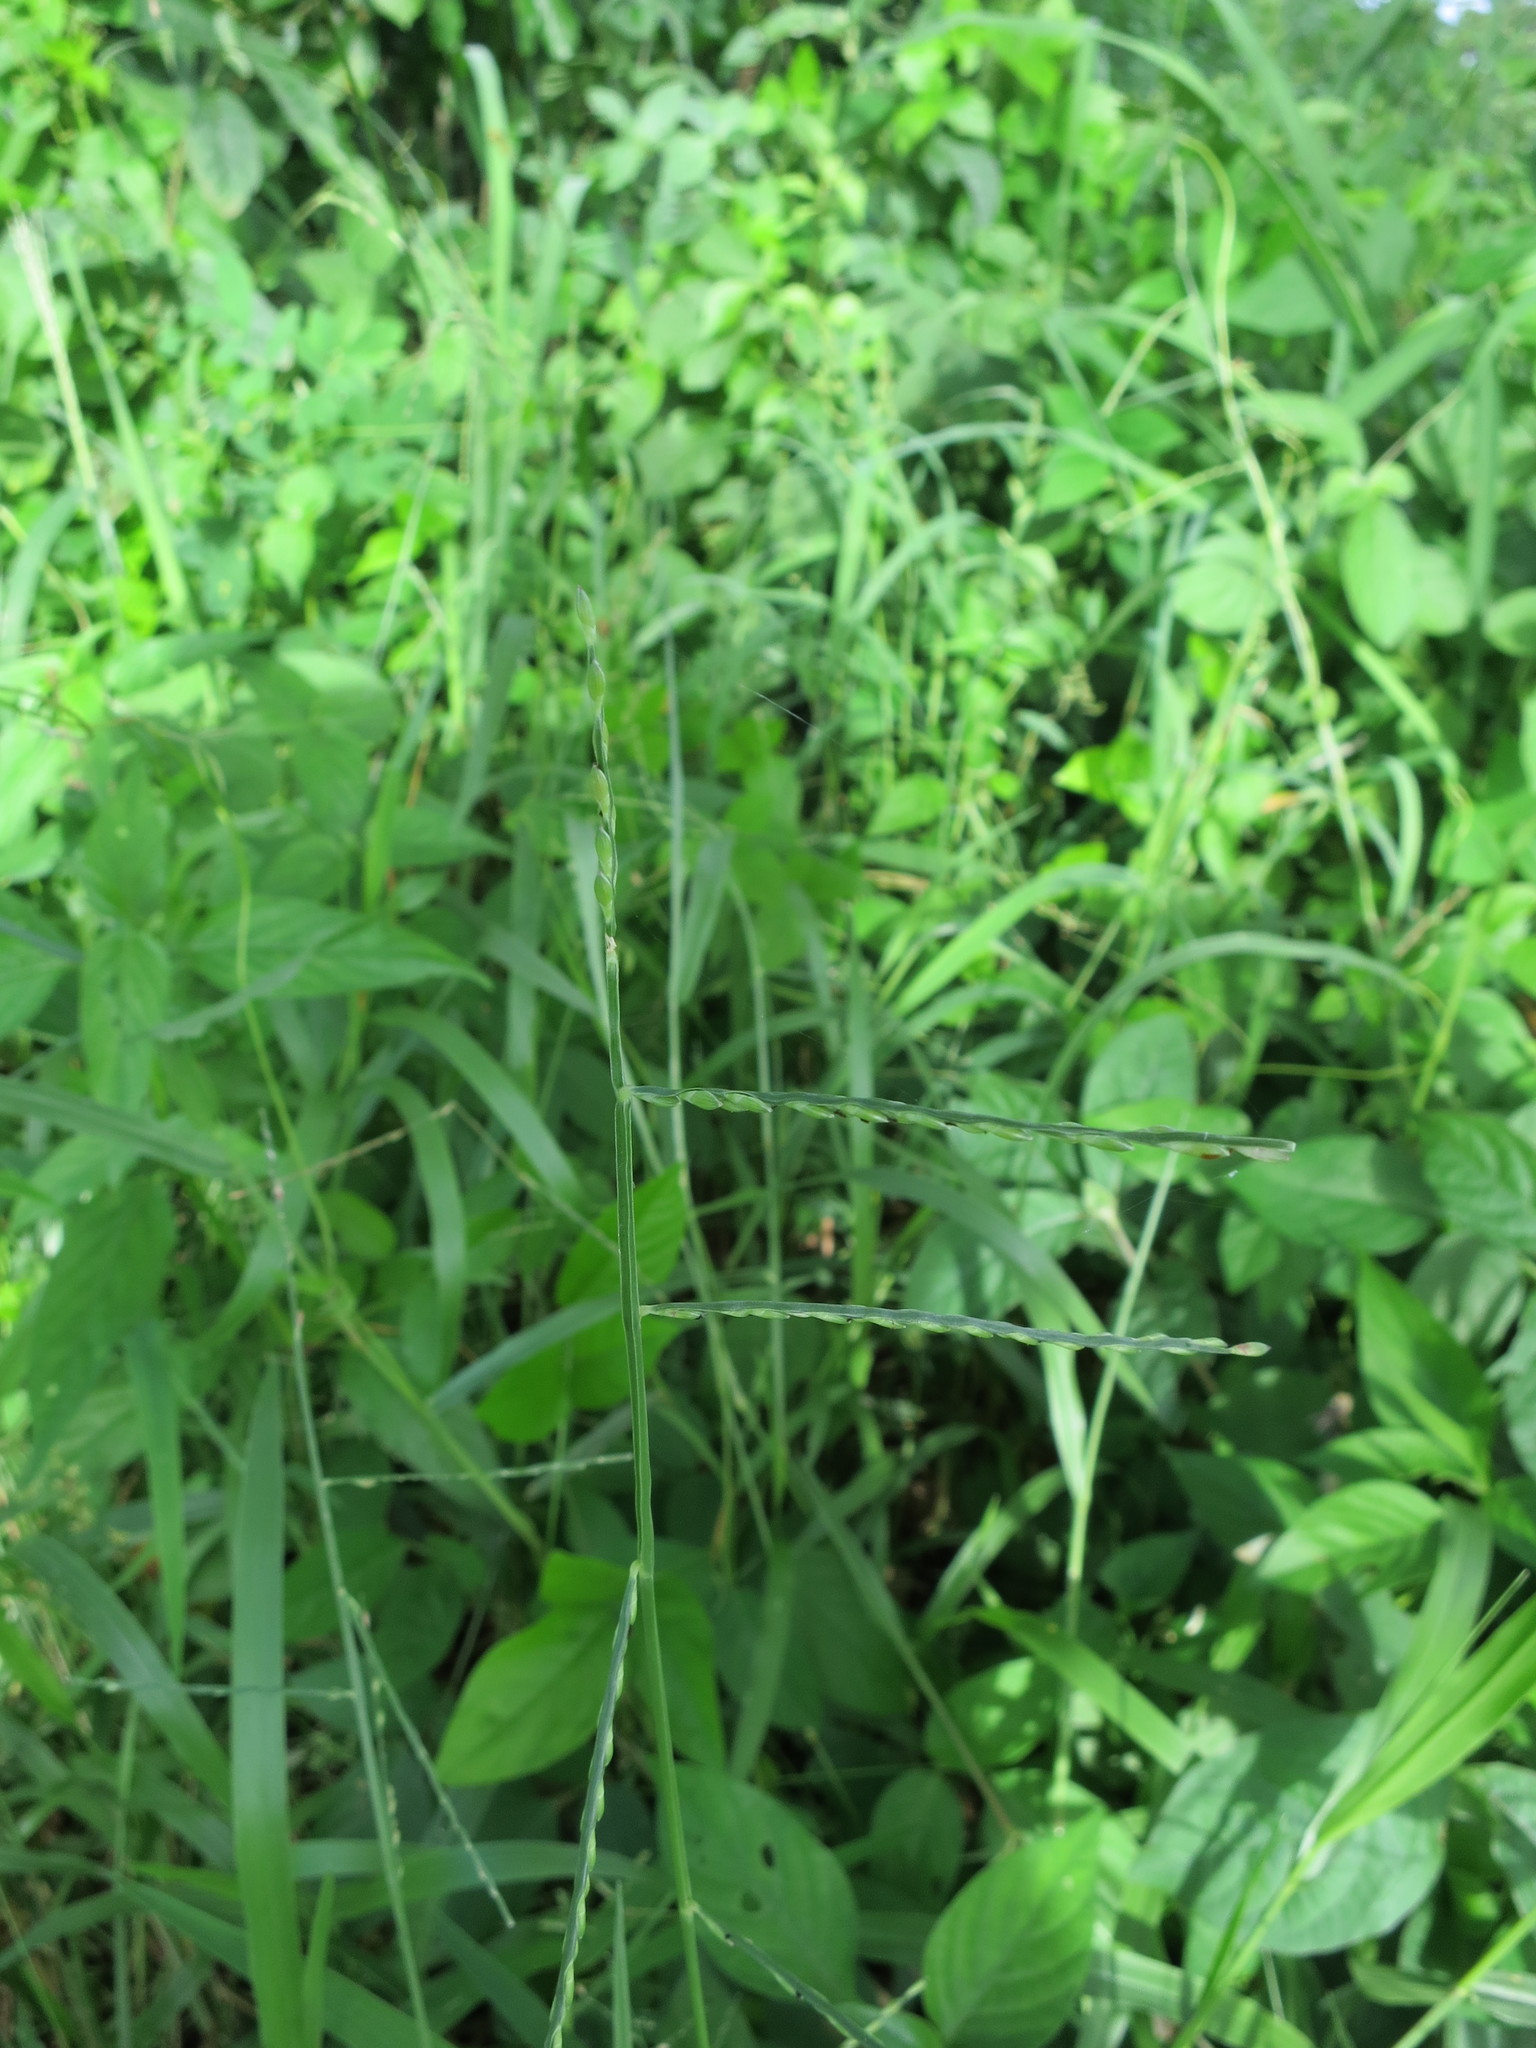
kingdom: Plantae
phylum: Tracheophyta
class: Liliopsida
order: Poales
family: Poaceae
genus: Urochloa
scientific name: Urochloa distachyos
